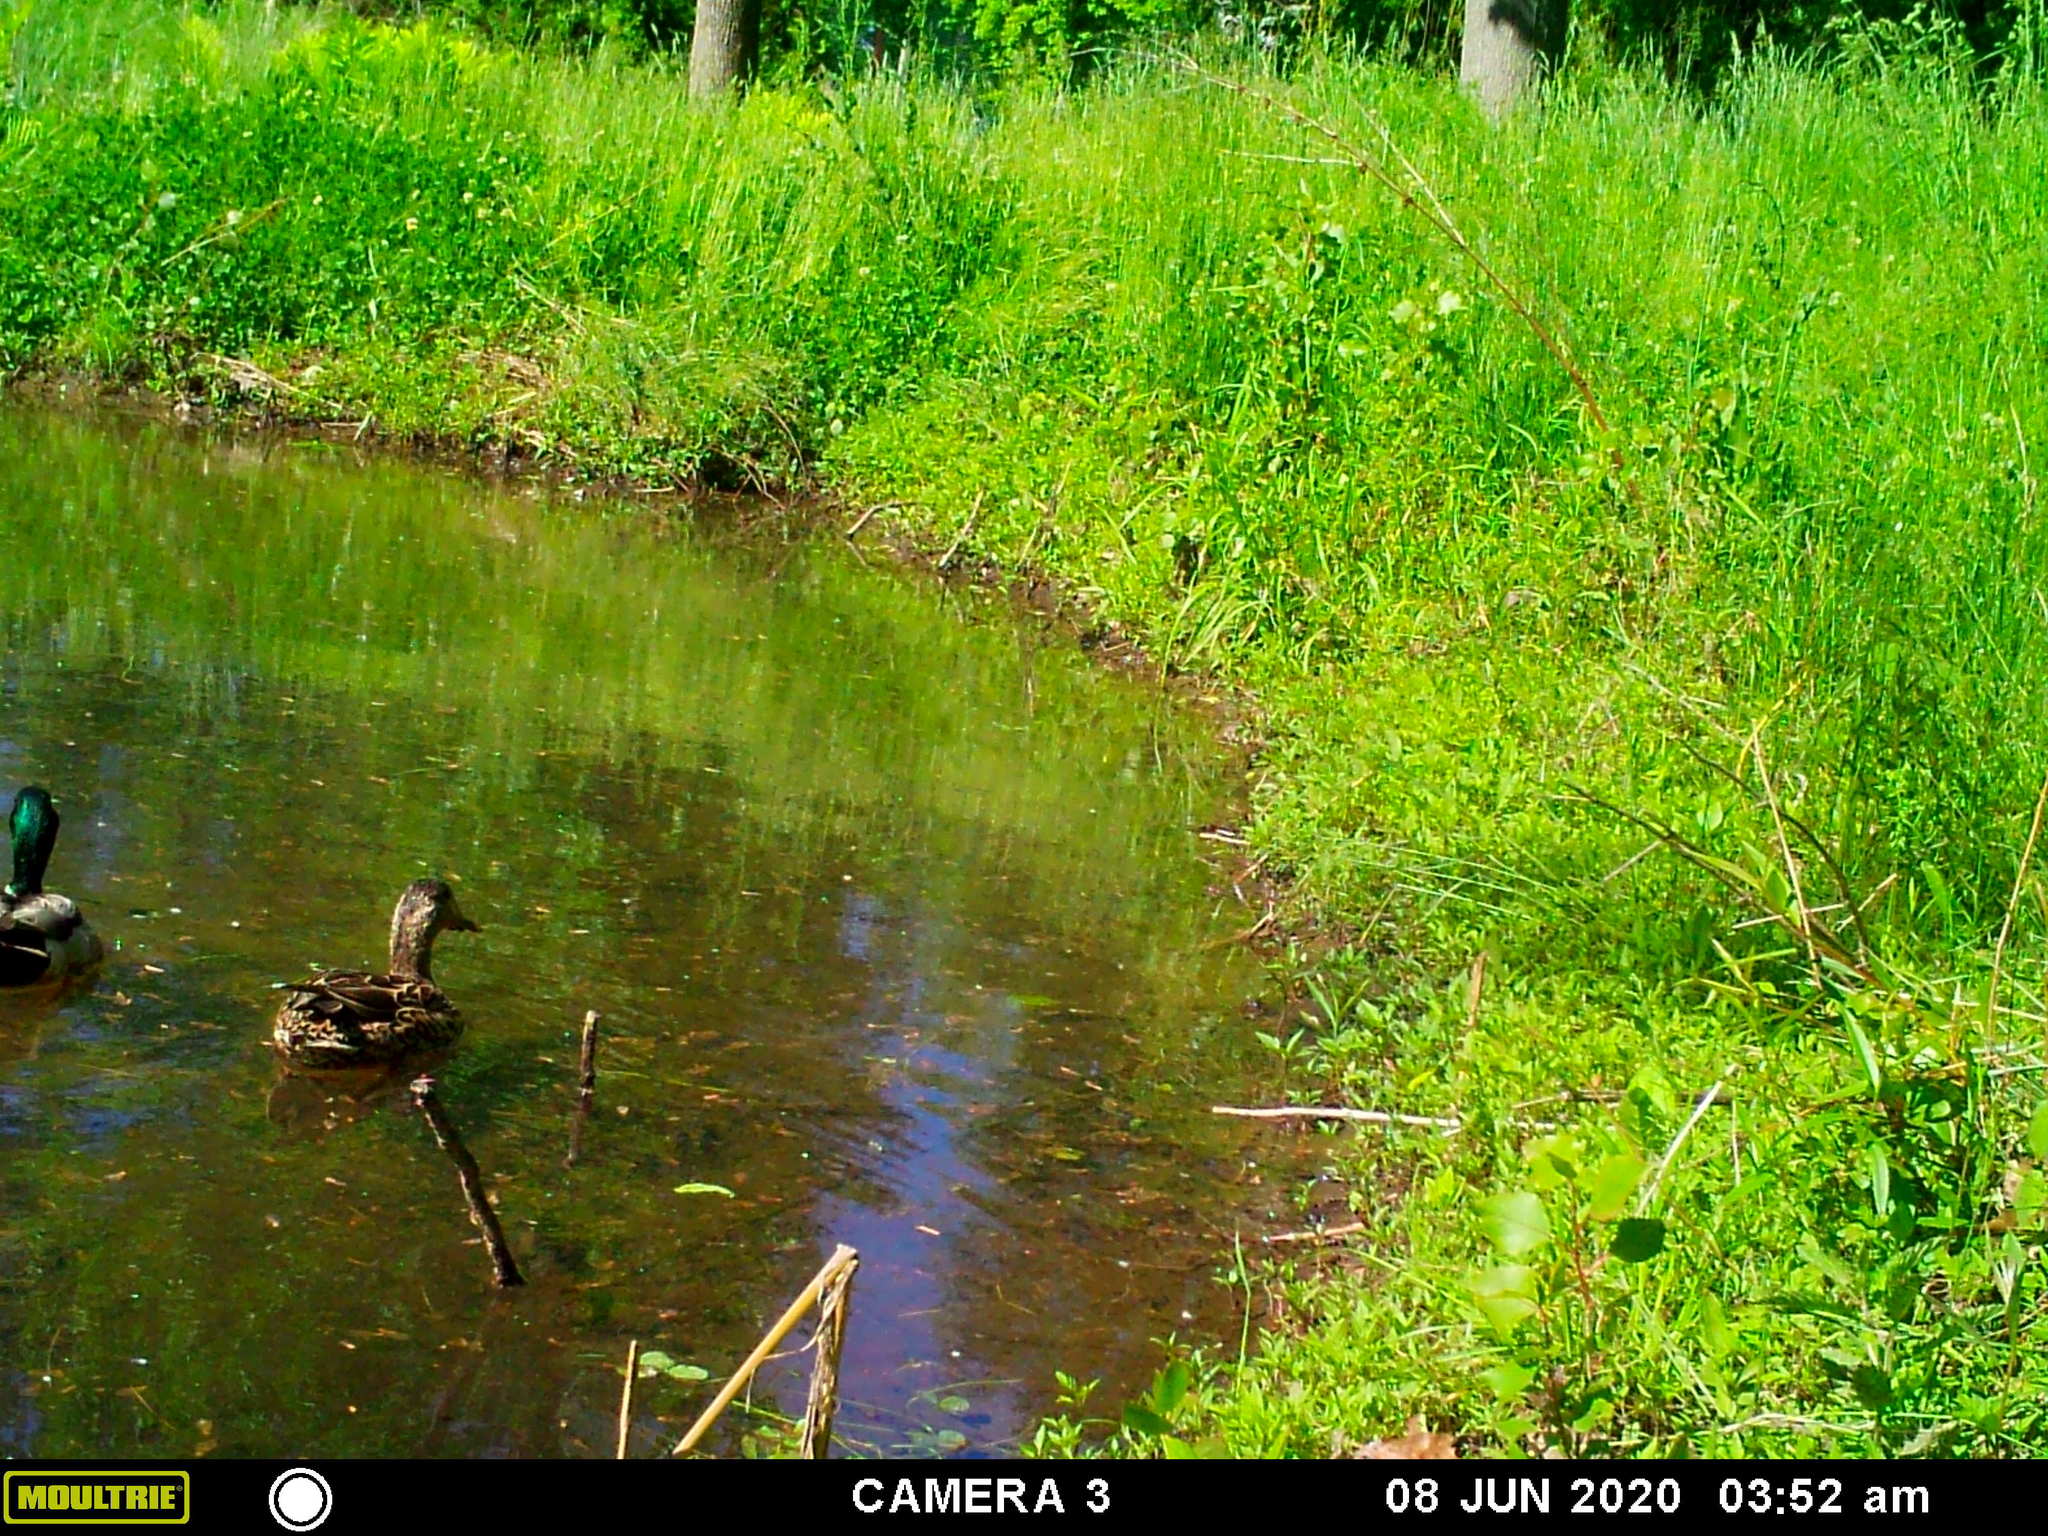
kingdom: Animalia
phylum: Chordata
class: Aves
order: Anseriformes
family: Anatidae
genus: Anas
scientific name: Anas platyrhynchos
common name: Mallard
